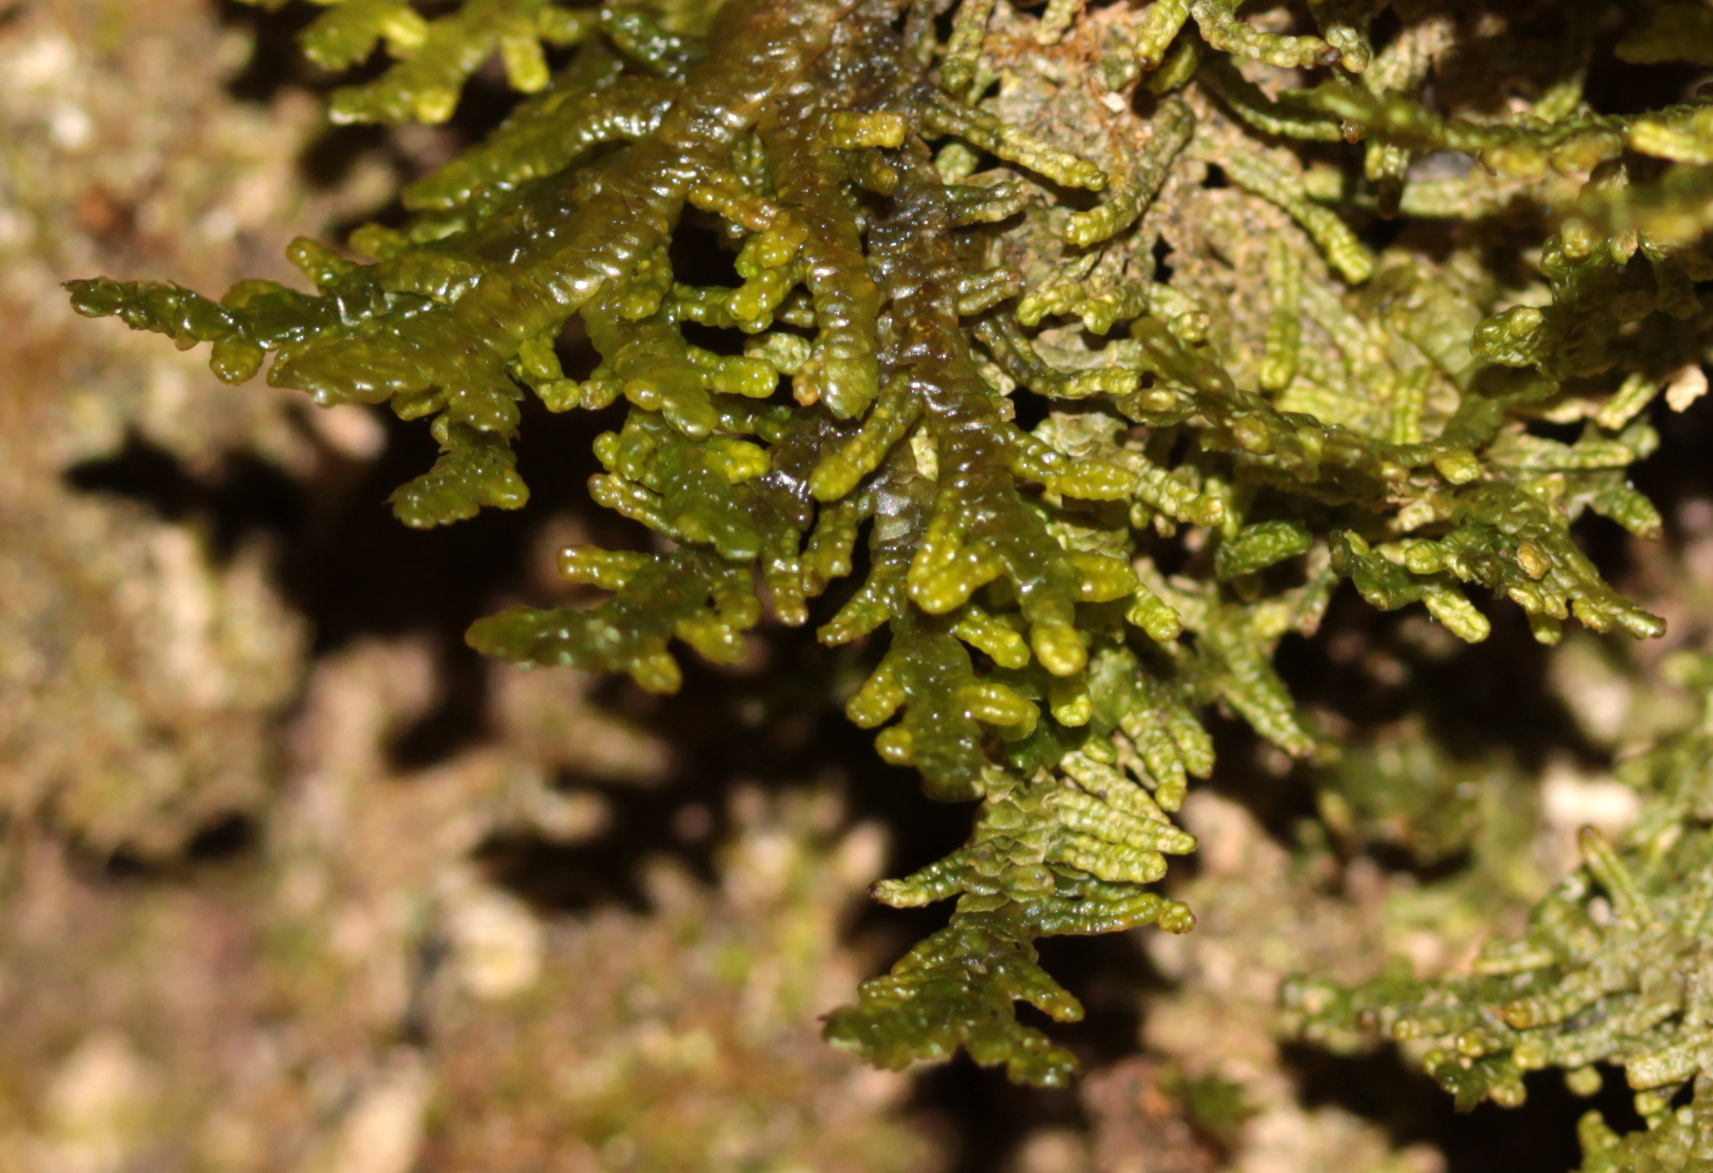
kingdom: Plantae
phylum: Marchantiophyta
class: Jungermanniopsida
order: Porellales
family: Porellaceae
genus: Porella
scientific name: Porella platyphylla
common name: Wall scalewort
